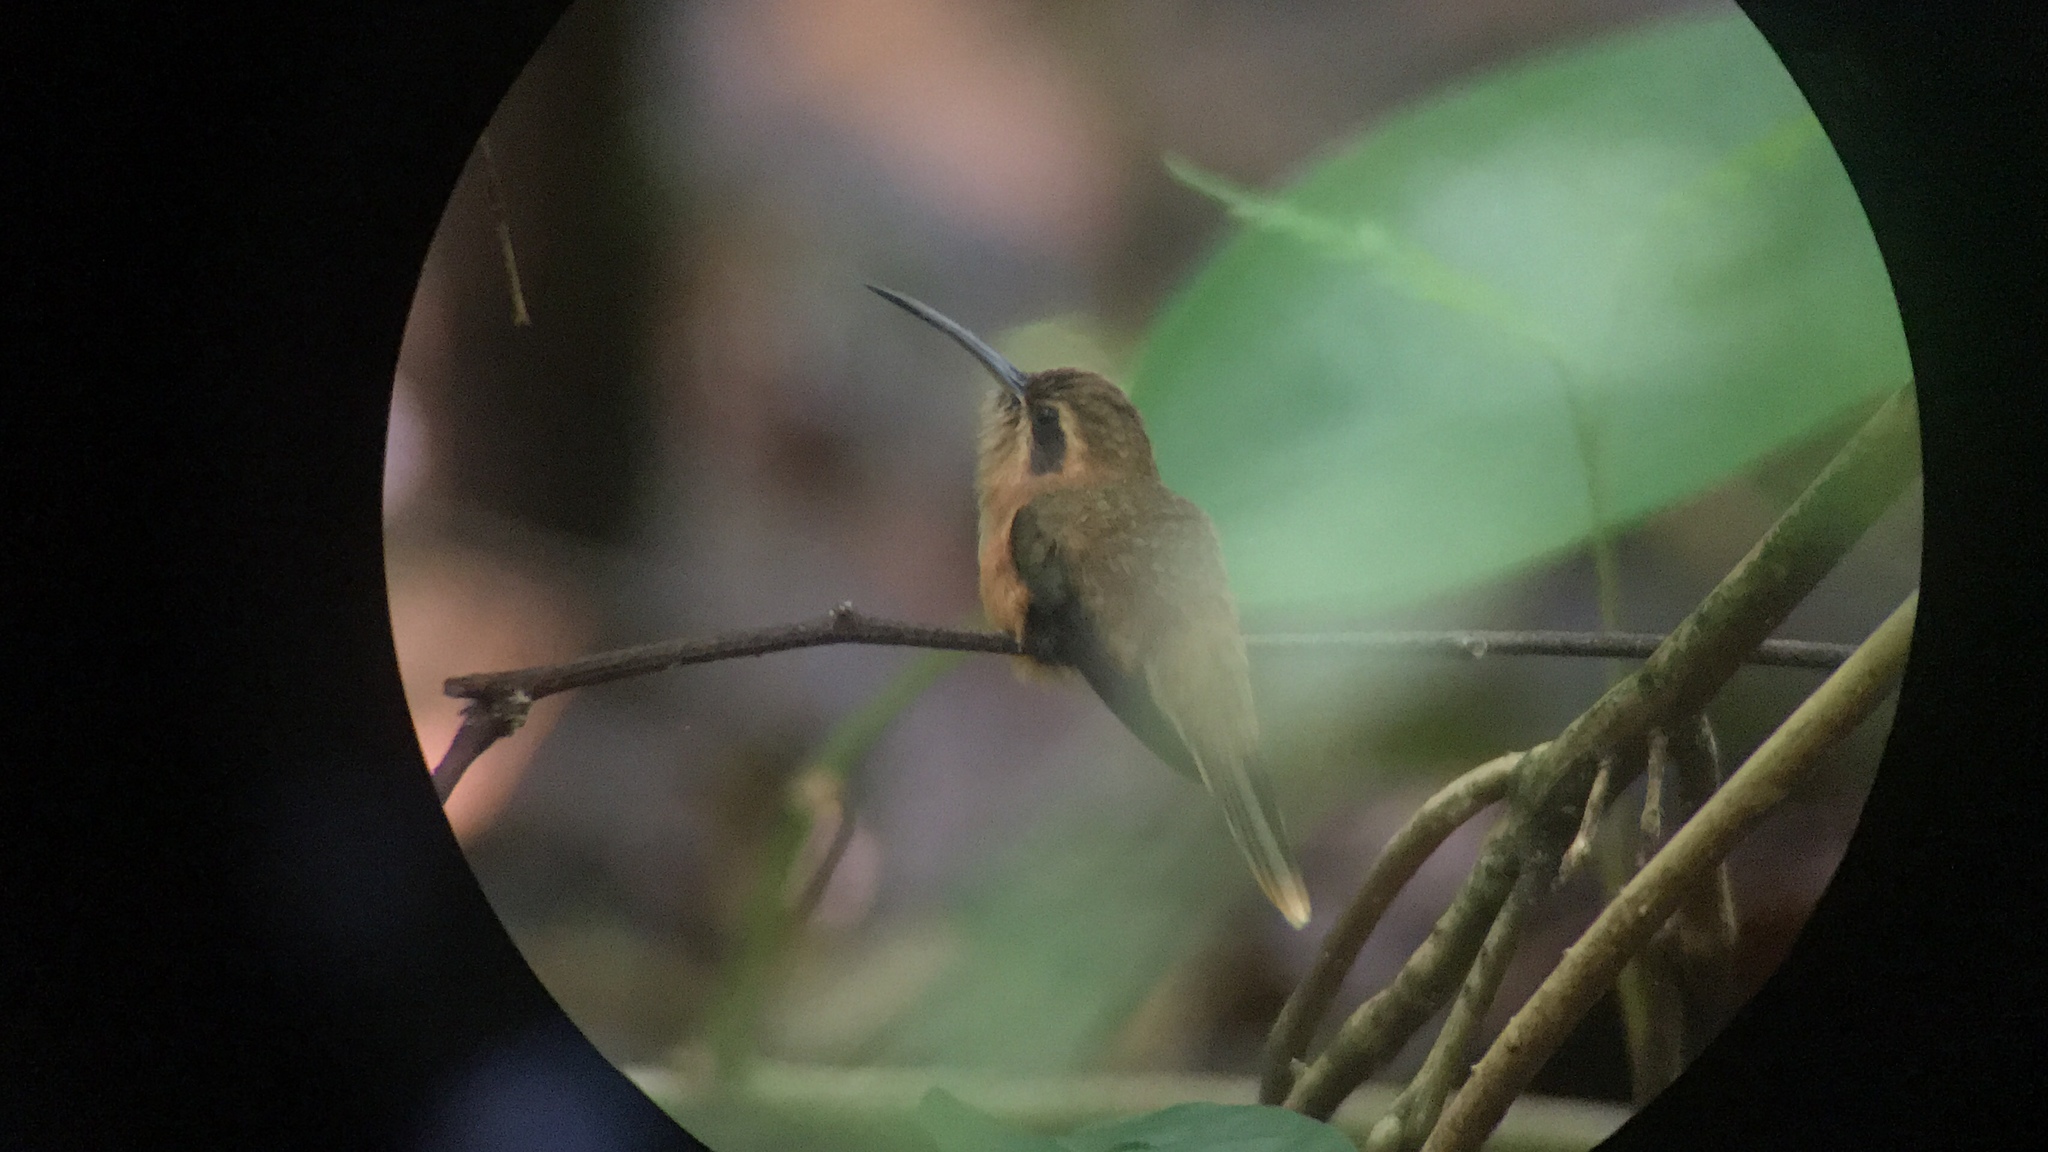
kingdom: Animalia
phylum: Chordata
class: Aves
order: Apodiformes
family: Trochilidae
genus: Phaethornis
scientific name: Phaethornis striigularis
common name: Stripe-throated hermit
